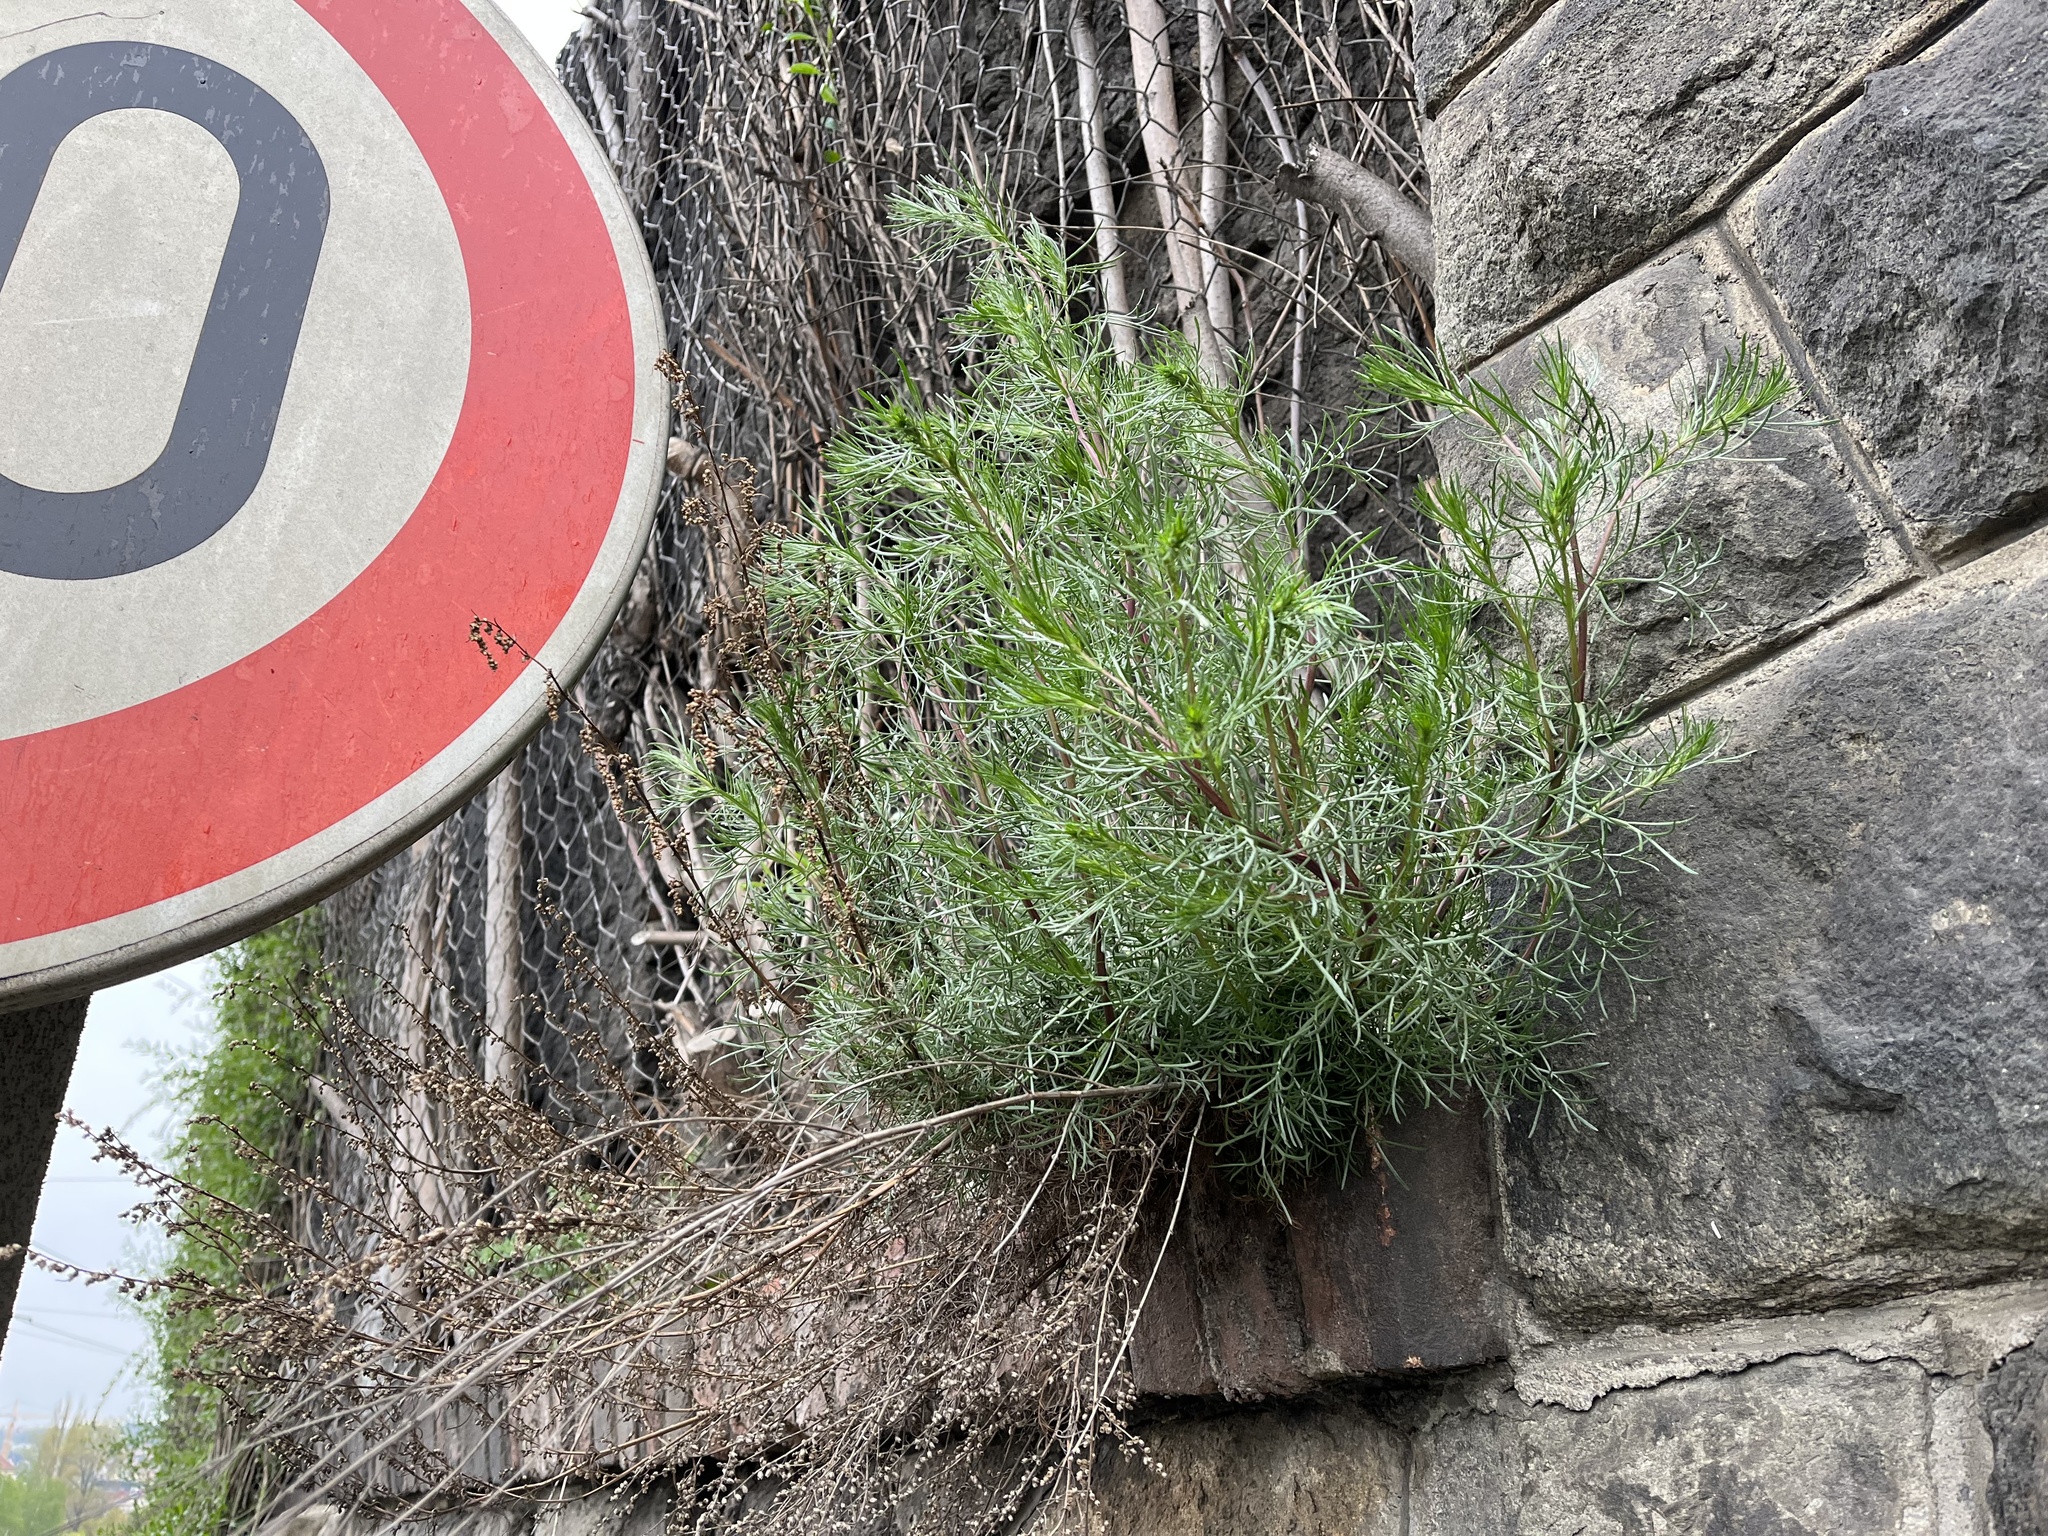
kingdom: Plantae
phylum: Tracheophyta
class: Magnoliopsida
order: Asterales
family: Asteraceae
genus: Artemisia
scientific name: Artemisia campestris
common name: Field wormwood
